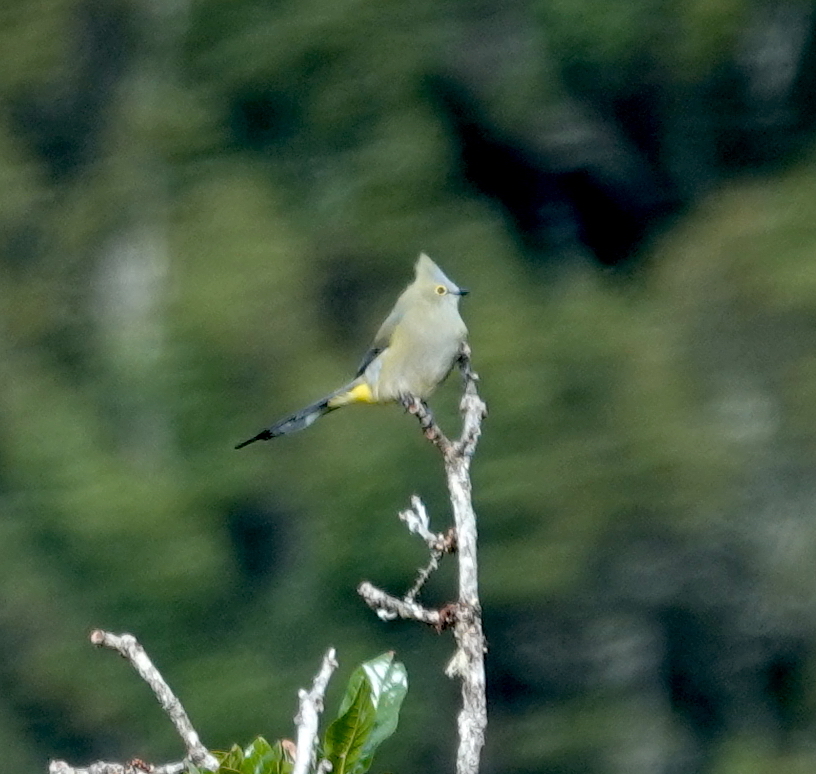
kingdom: Animalia
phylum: Chordata
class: Aves
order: Passeriformes
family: Ptilogonatidae
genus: Ptilogonys
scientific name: Ptilogonys caudatus
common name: Long-tailed silky-flycatcher
